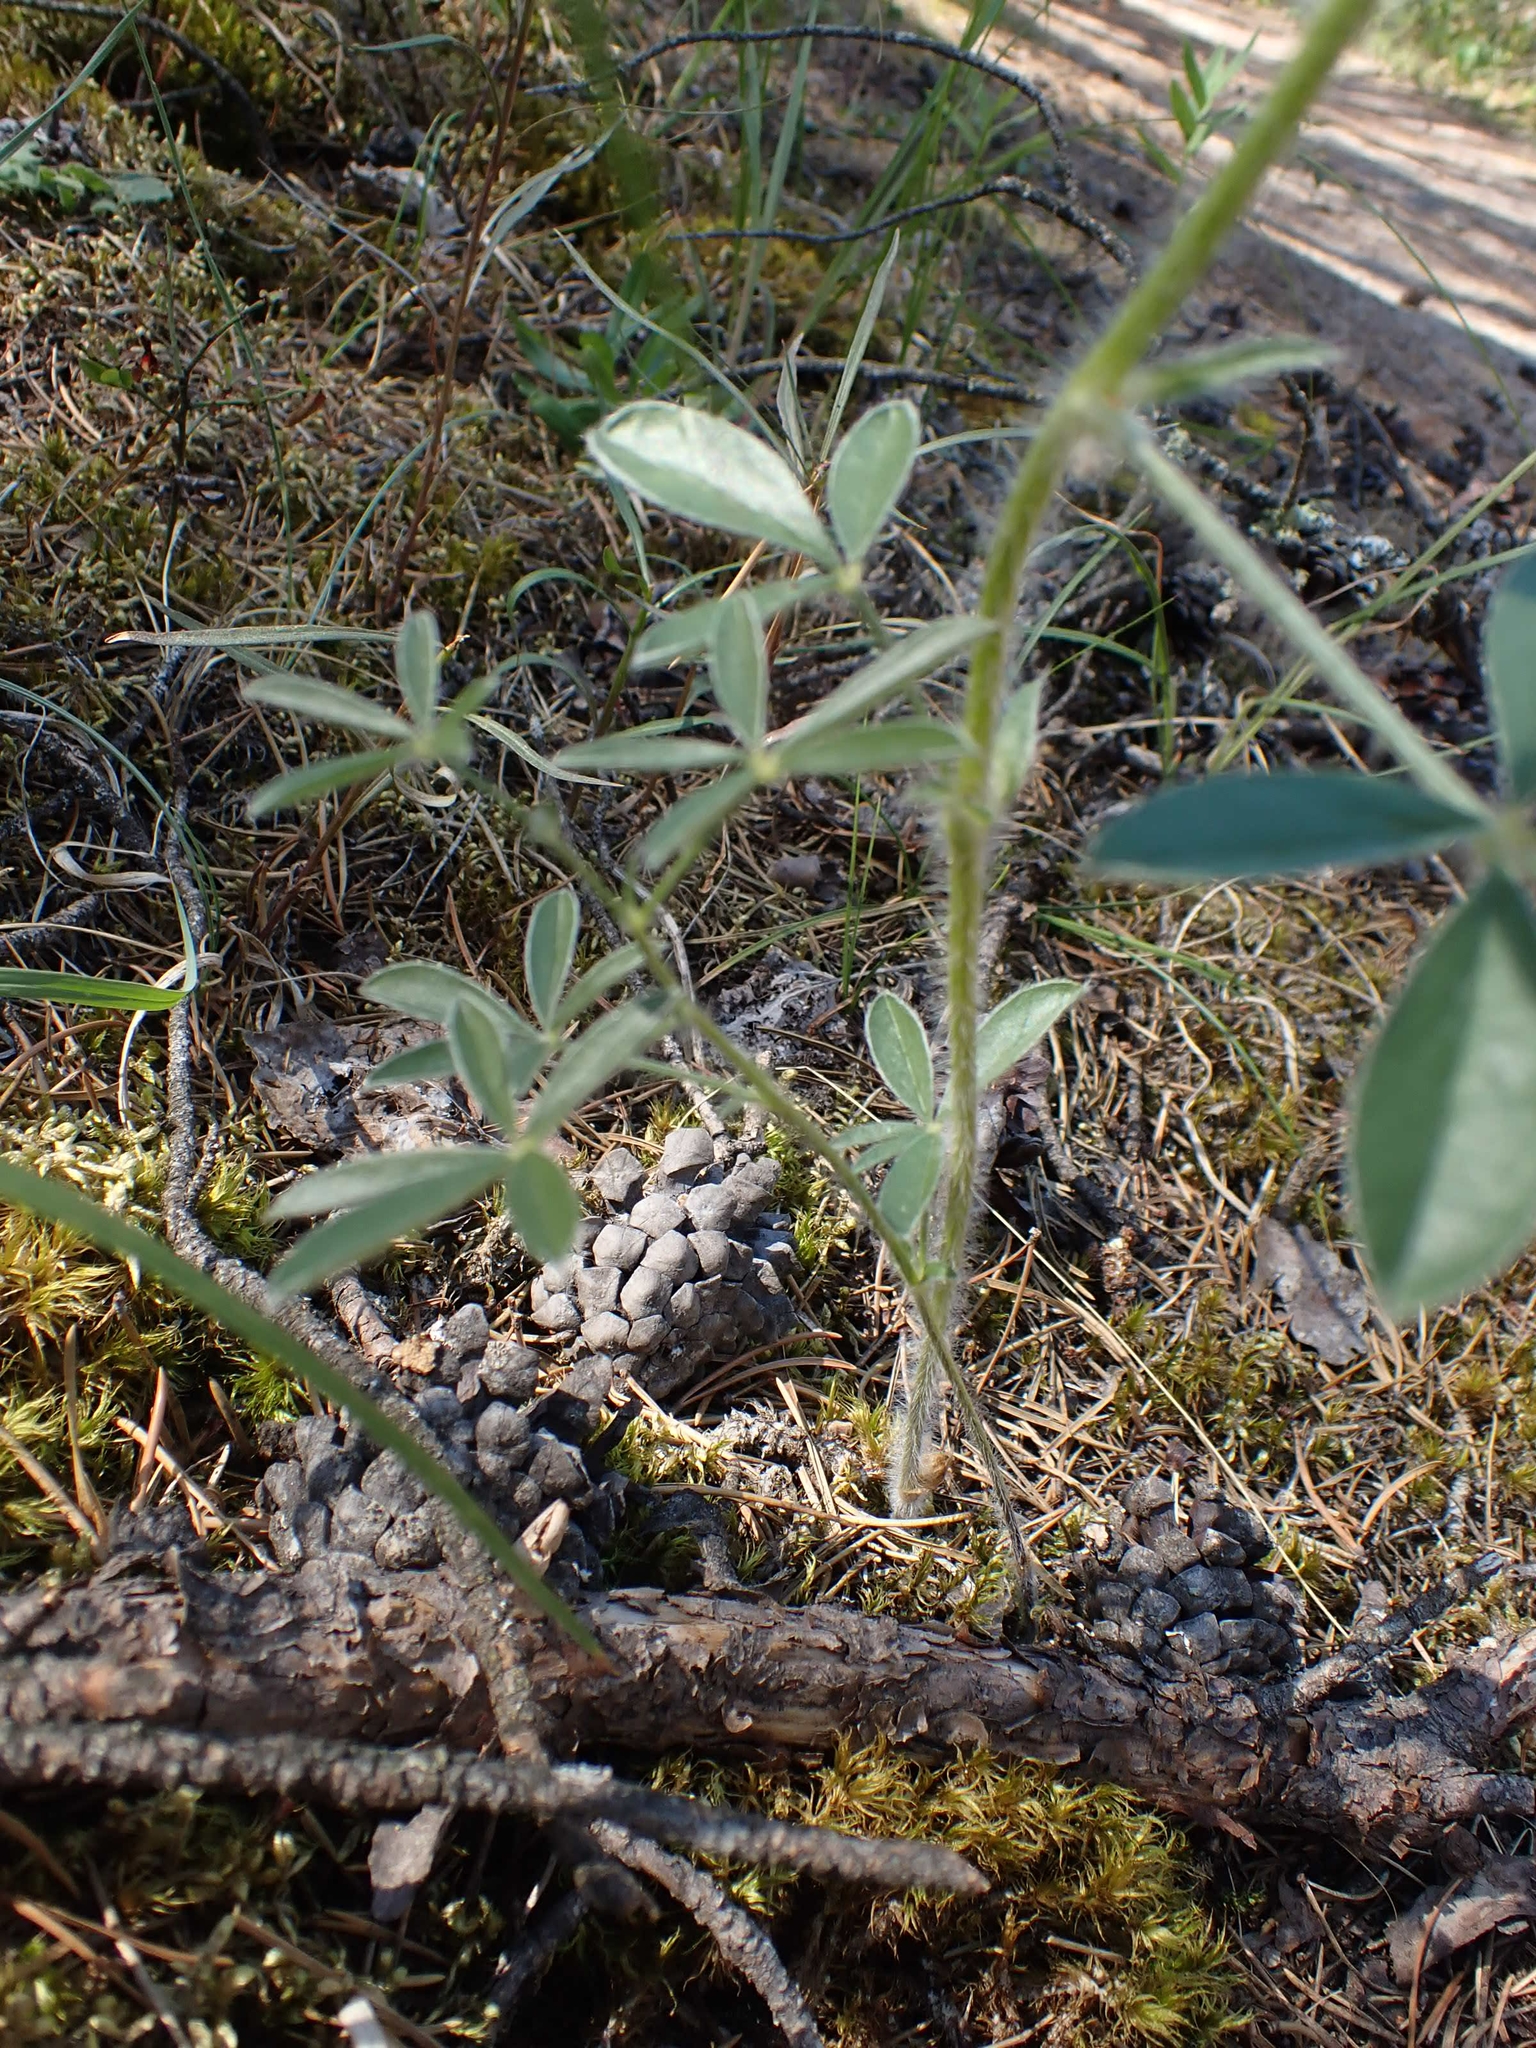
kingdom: Plantae
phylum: Tracheophyta
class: Magnoliopsida
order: Fabales
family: Fabaceae
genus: Pediomelum
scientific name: Pediomelum esculentum
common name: Indian-turnip
